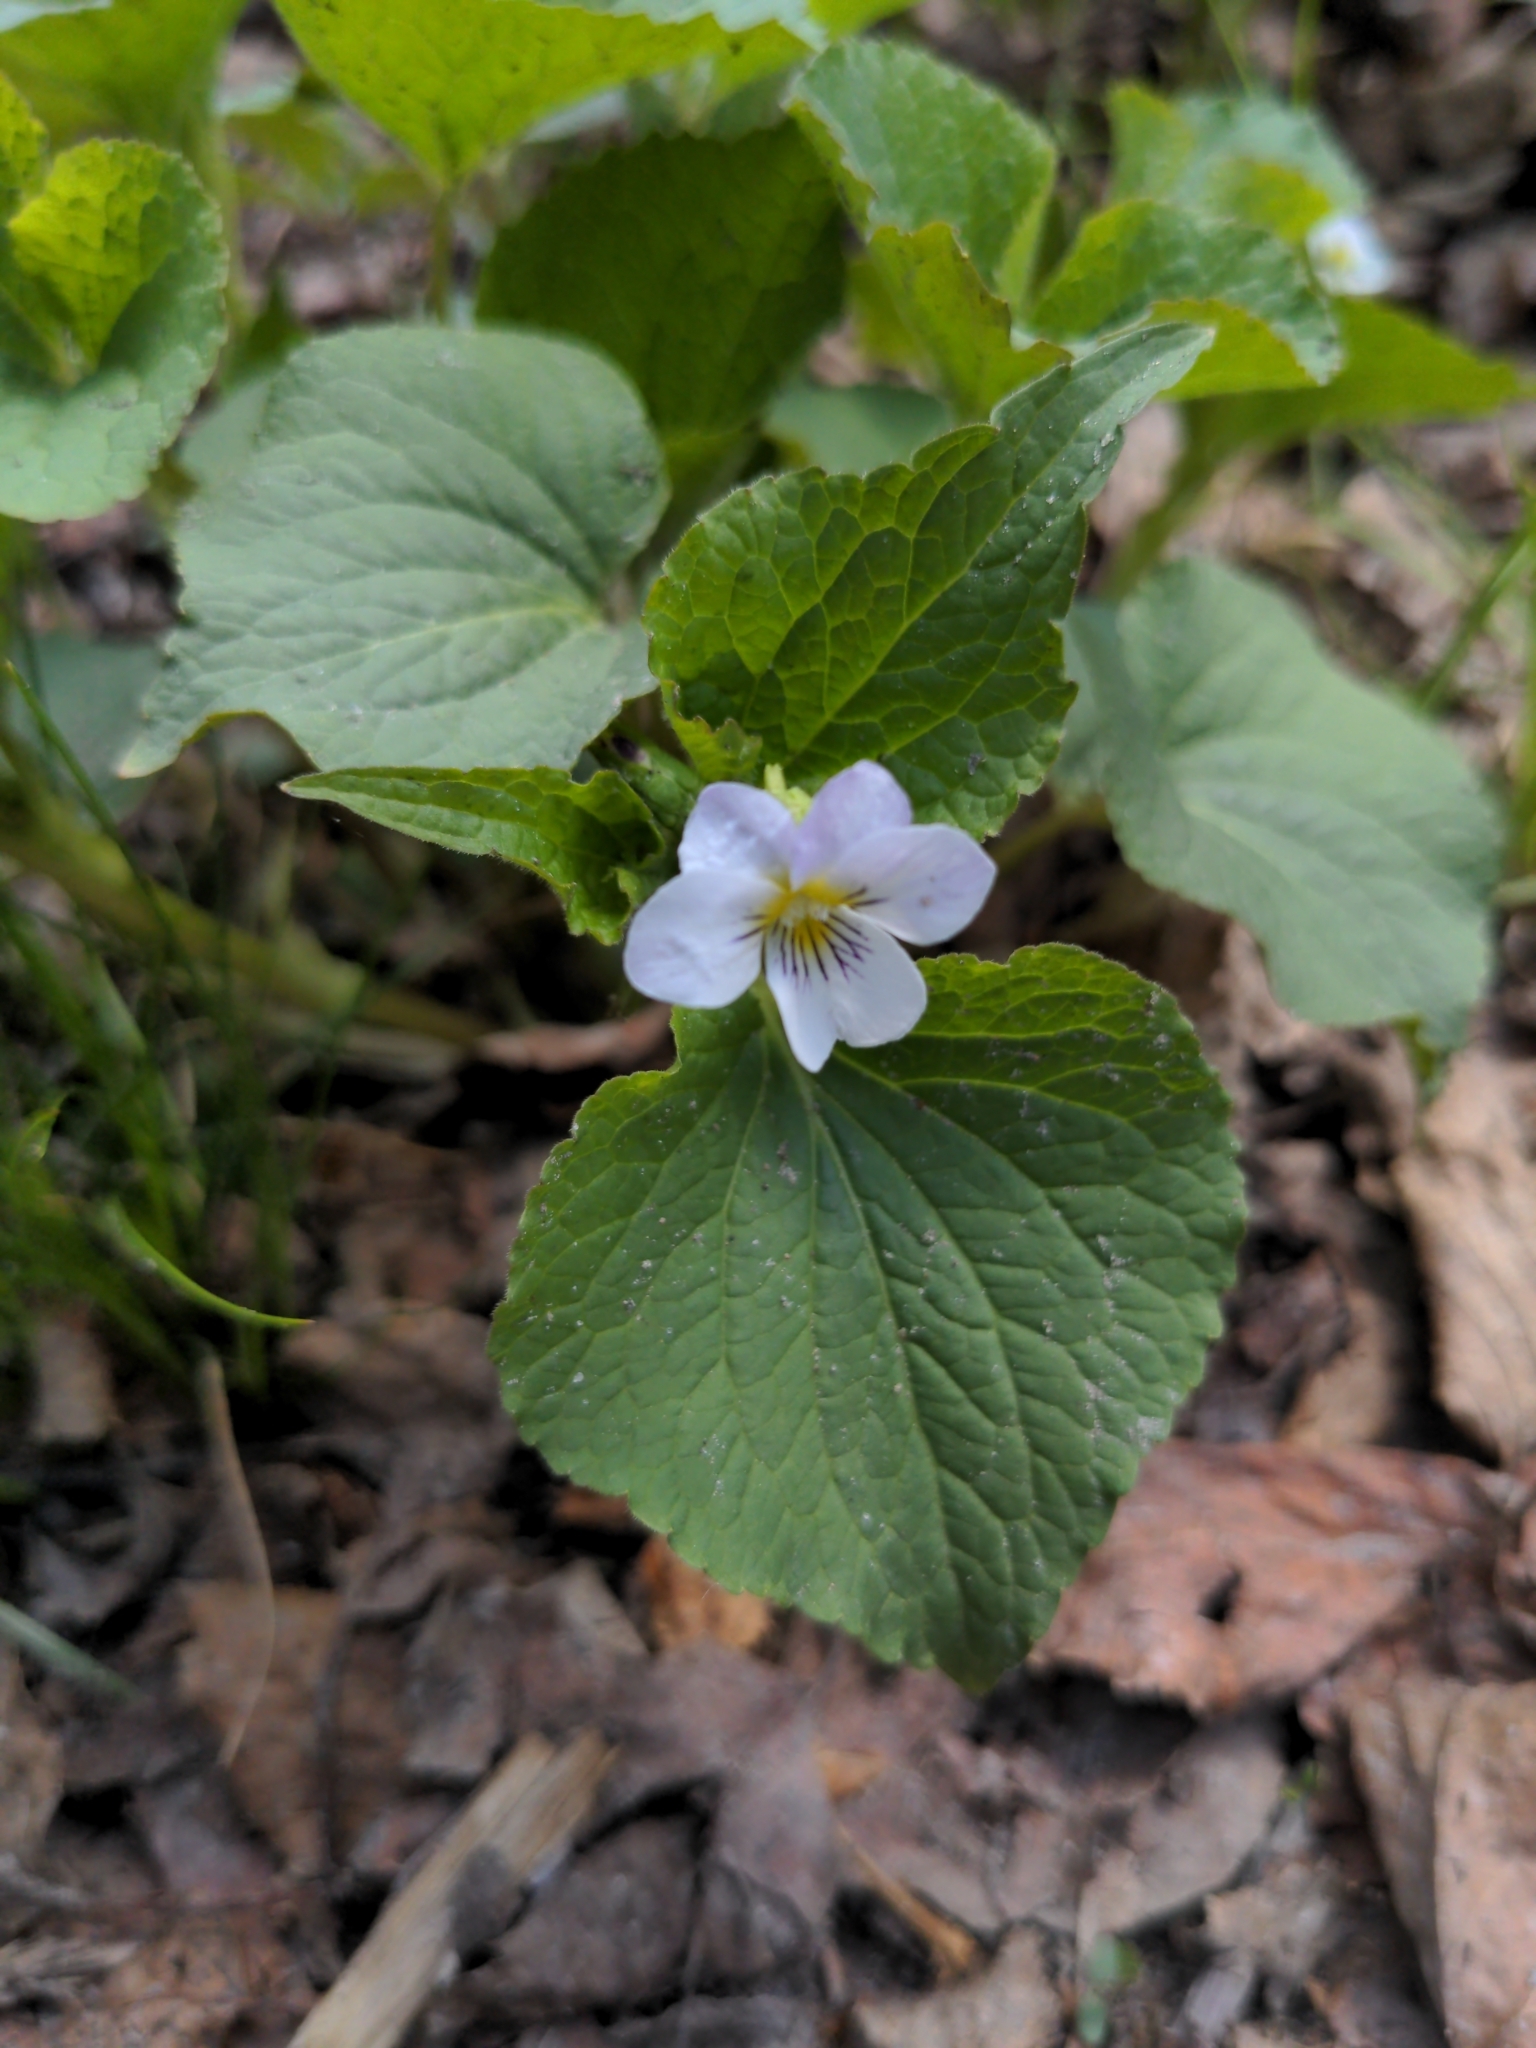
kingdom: Plantae
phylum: Tracheophyta
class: Magnoliopsida
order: Malpighiales
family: Violaceae
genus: Viola
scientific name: Viola canadensis
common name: Canada violet
